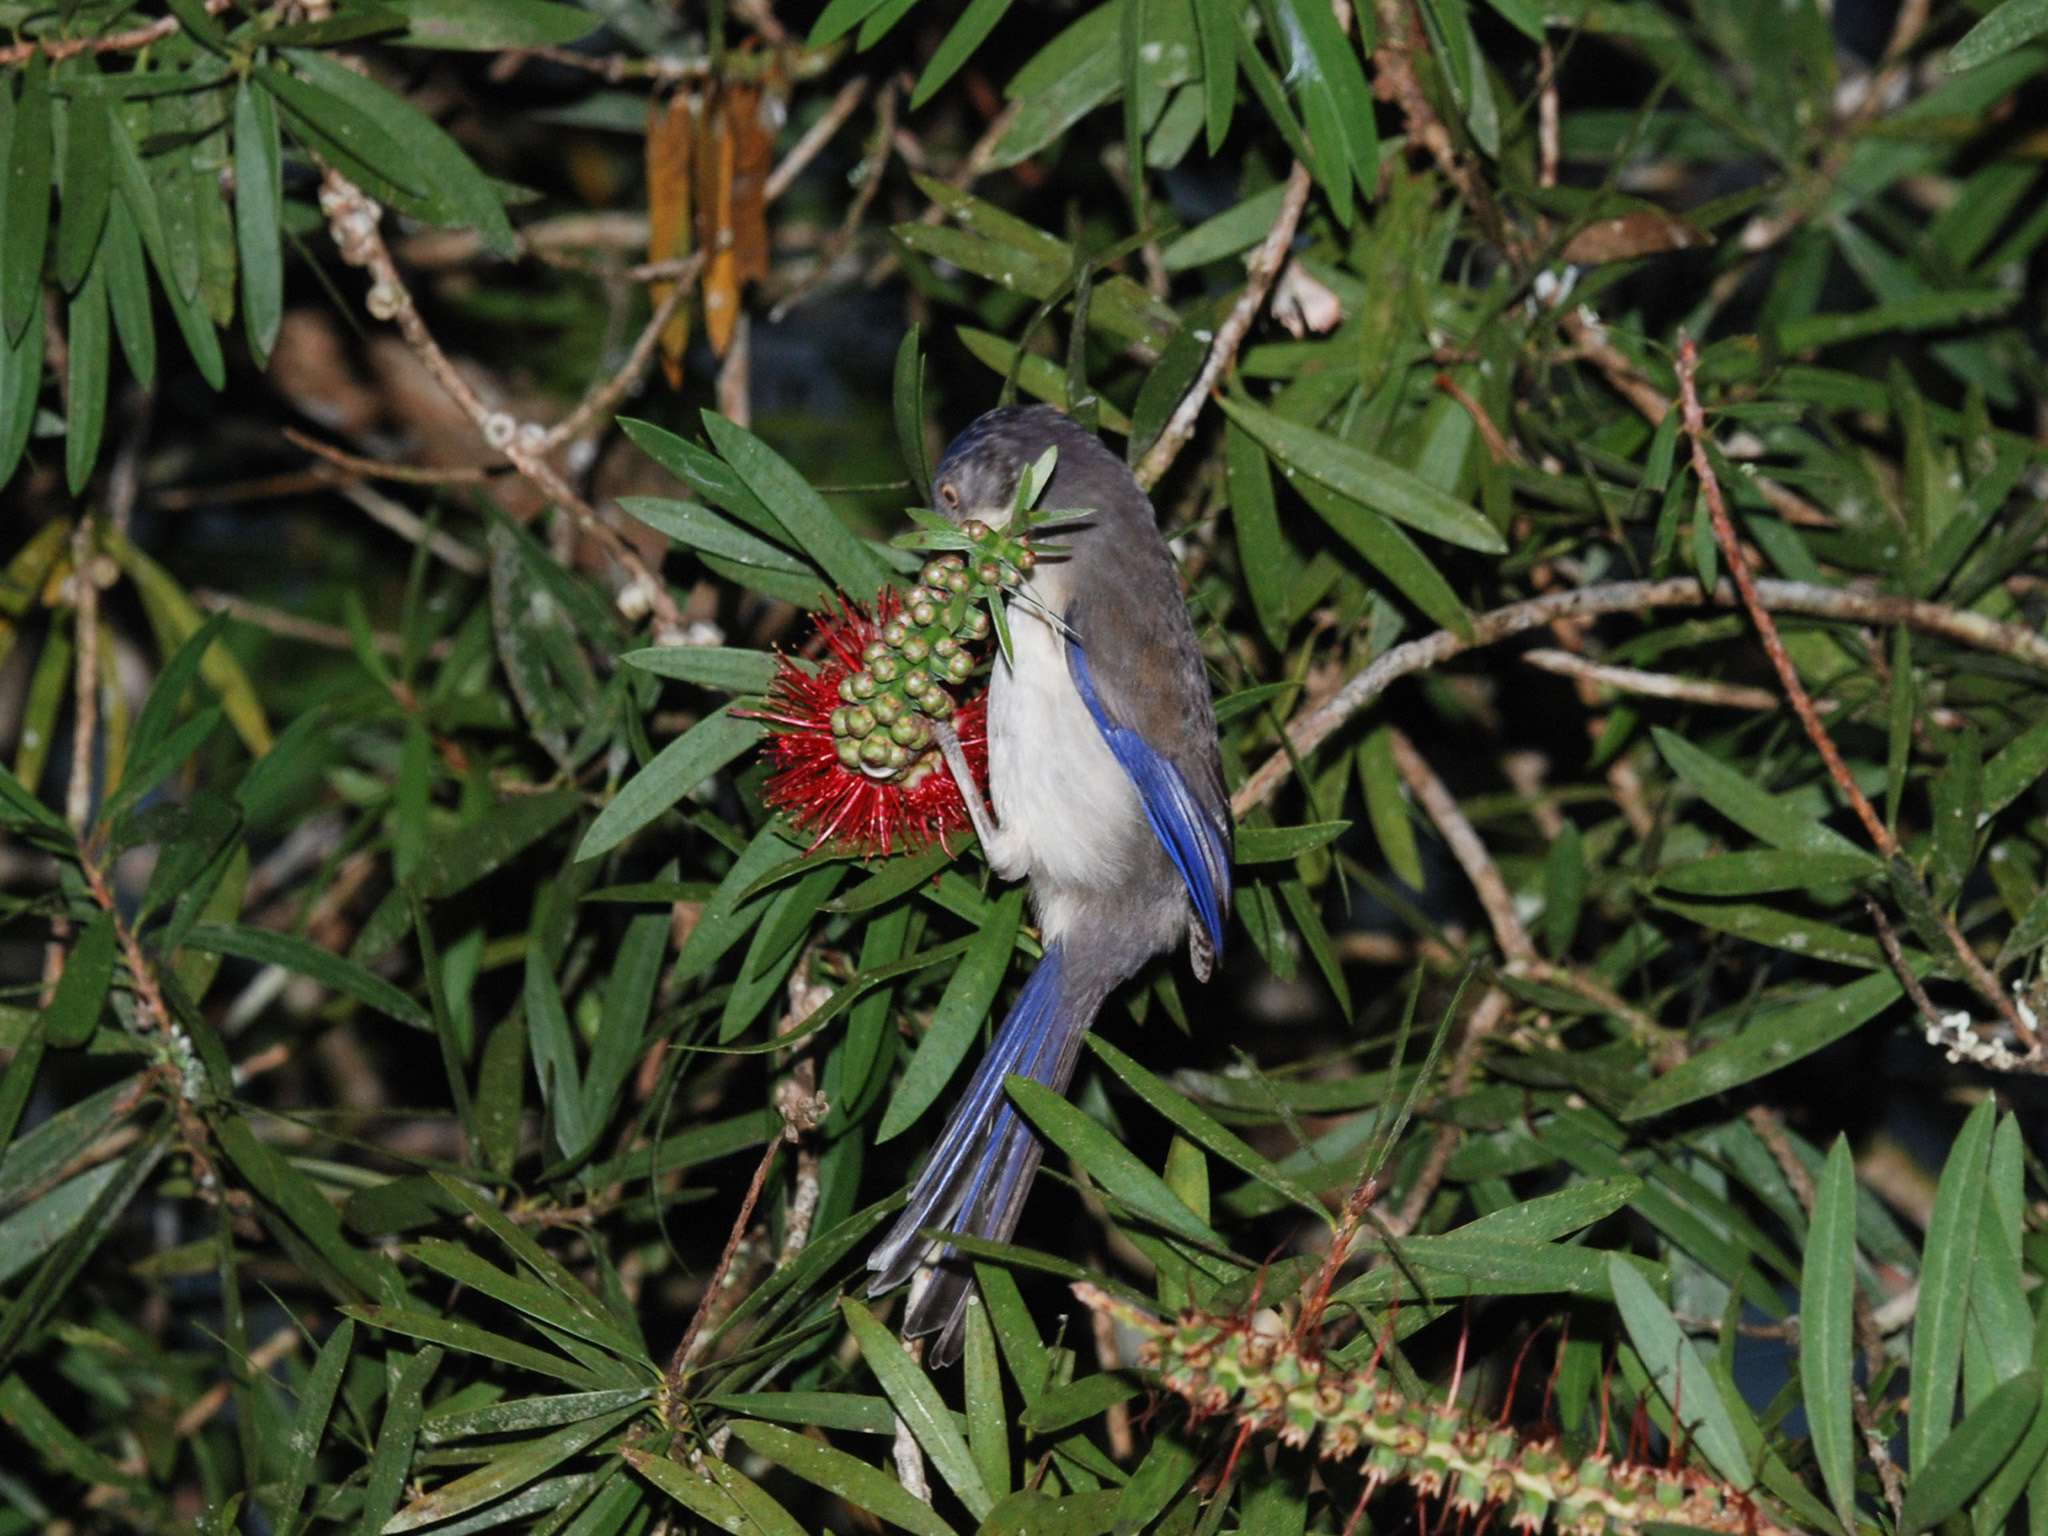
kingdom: Animalia
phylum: Chordata
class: Aves
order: Passeriformes
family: Leiothrichidae
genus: Minla
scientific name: Minla cyanouroptera
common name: Blue-winged minla
